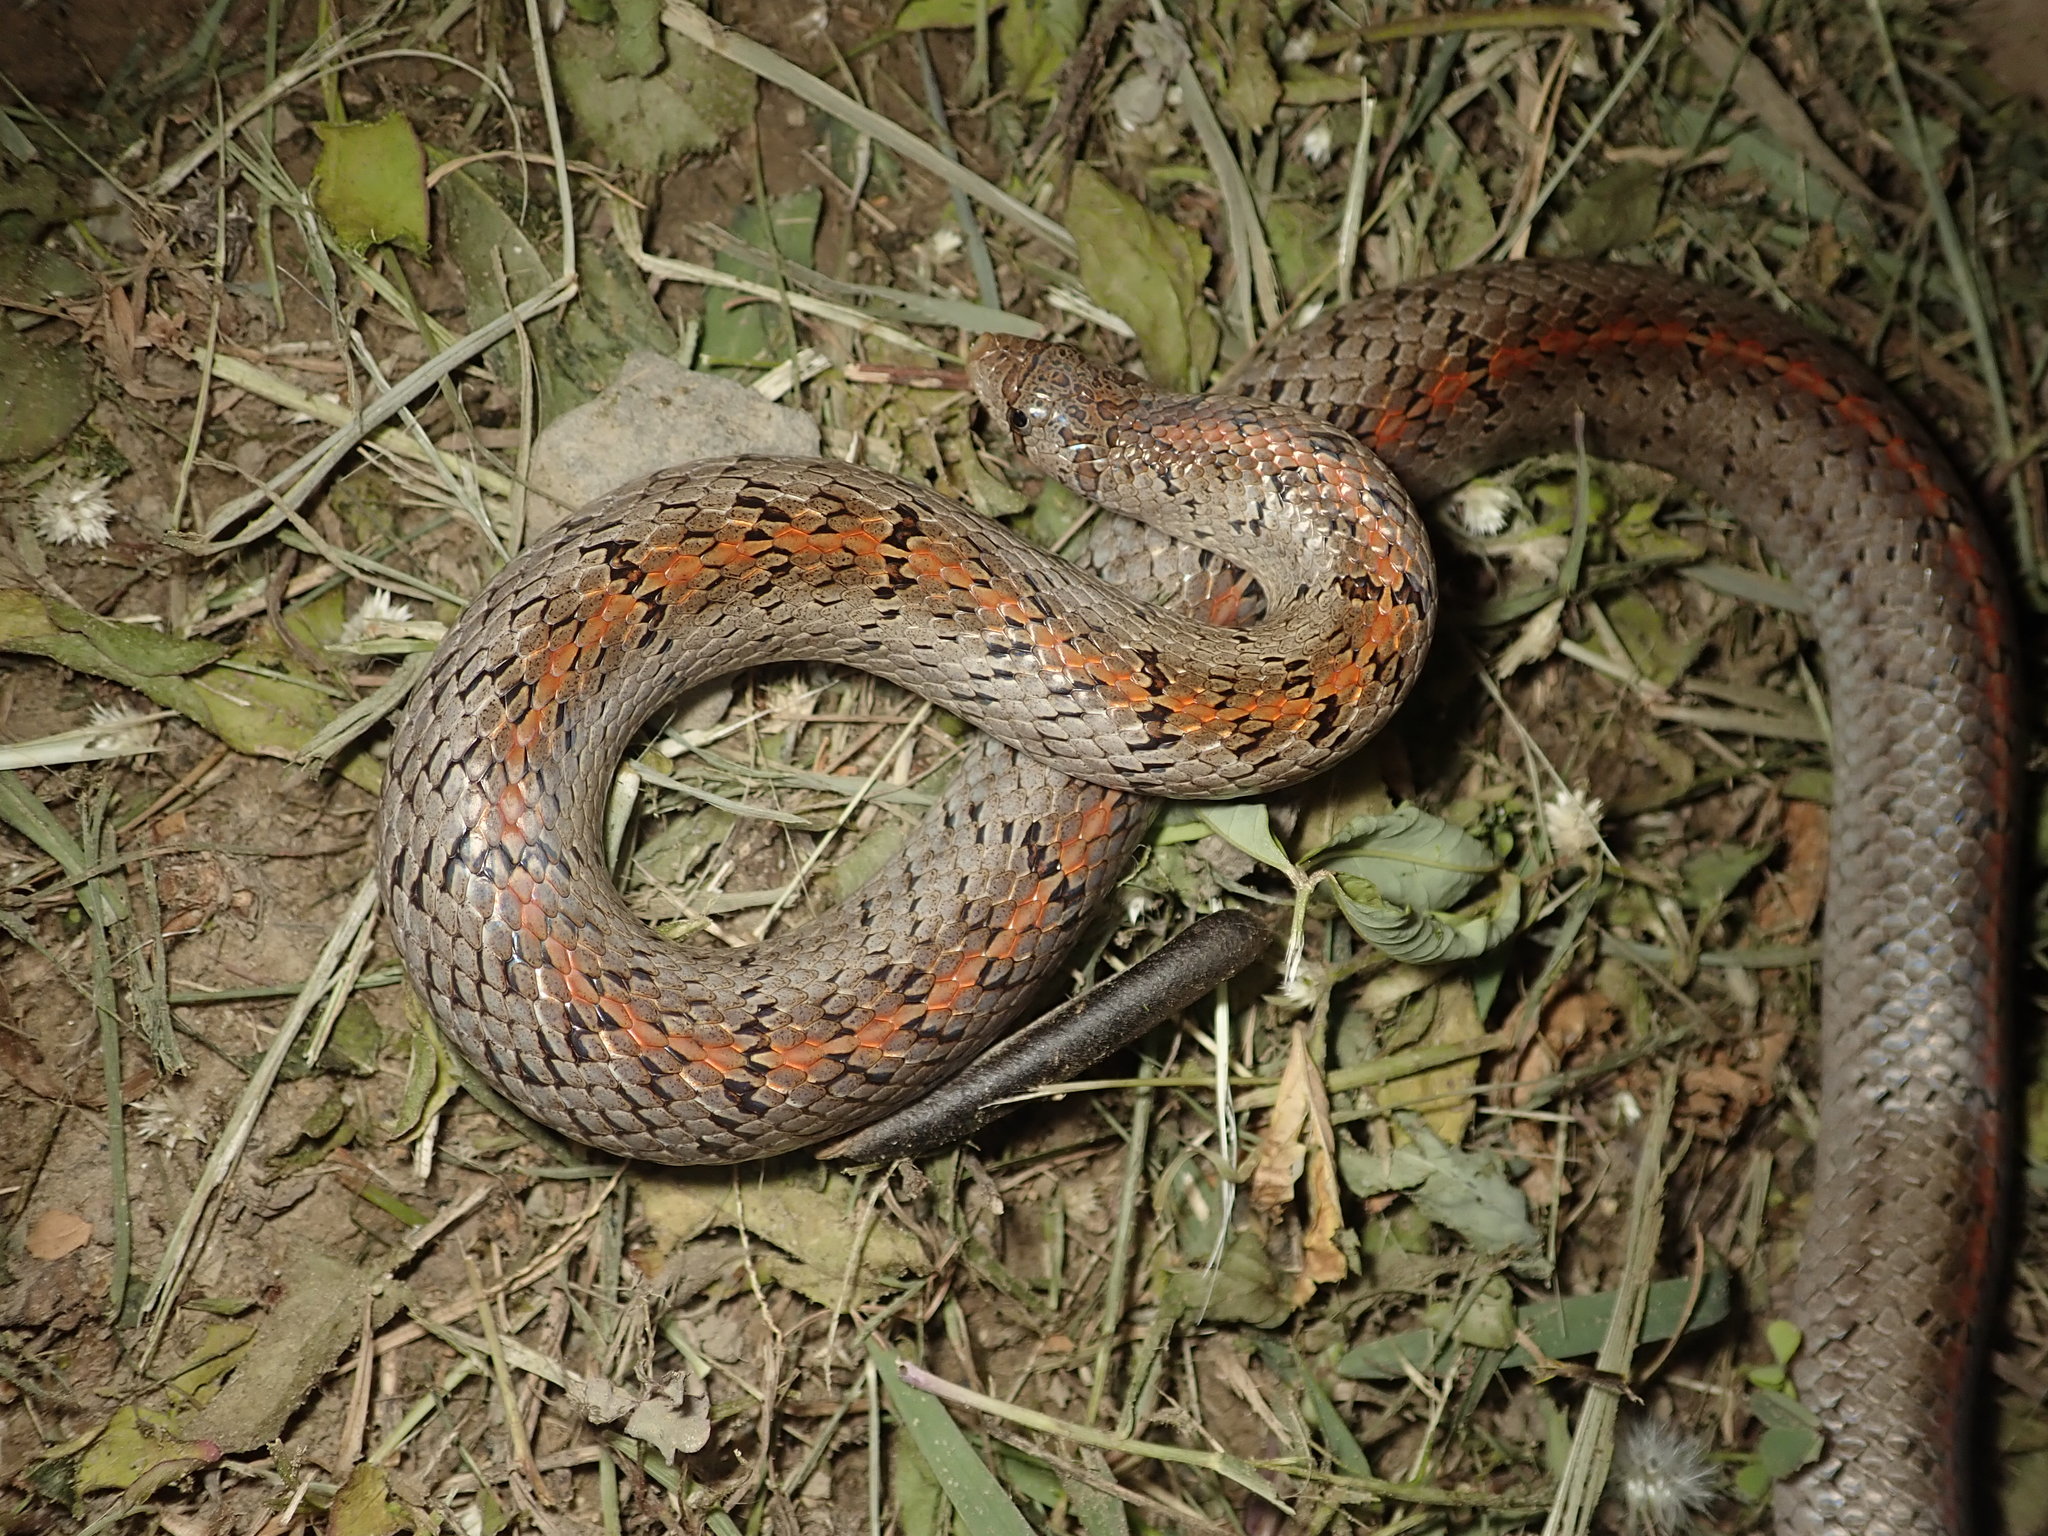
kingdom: Animalia
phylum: Chordata
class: Squamata
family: Colubridae
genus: Oligodon
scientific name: Oligodon formosanus
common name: Formosa kukri snake
